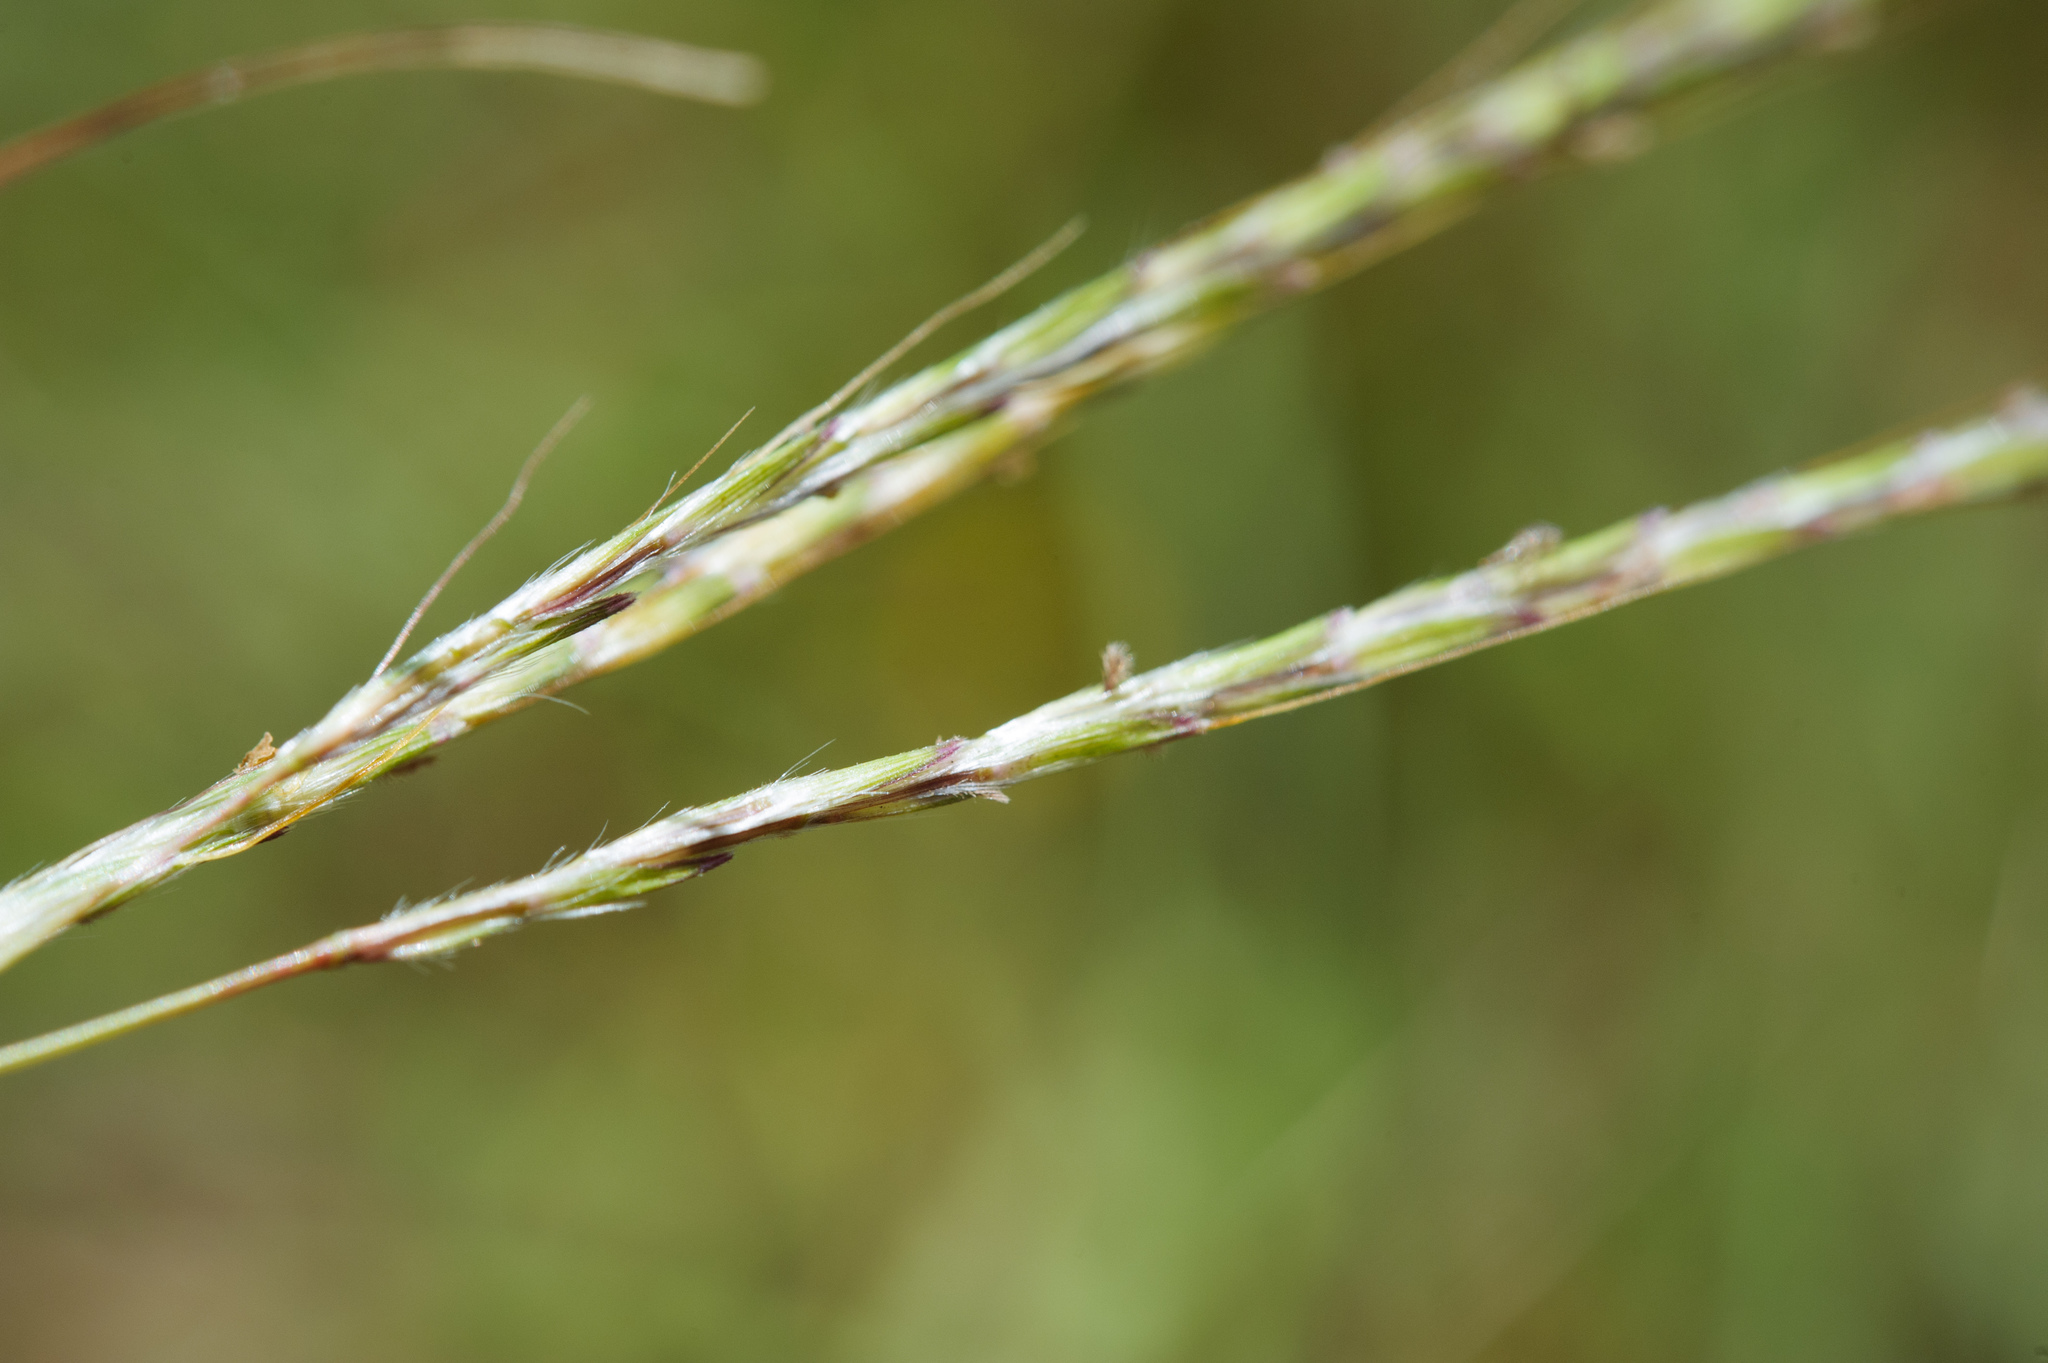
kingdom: Plantae
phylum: Tracheophyta
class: Liliopsida
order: Poales
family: Poaceae
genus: Bothriochloa
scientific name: Bothriochloa ischaemum
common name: Yellow bluestem
